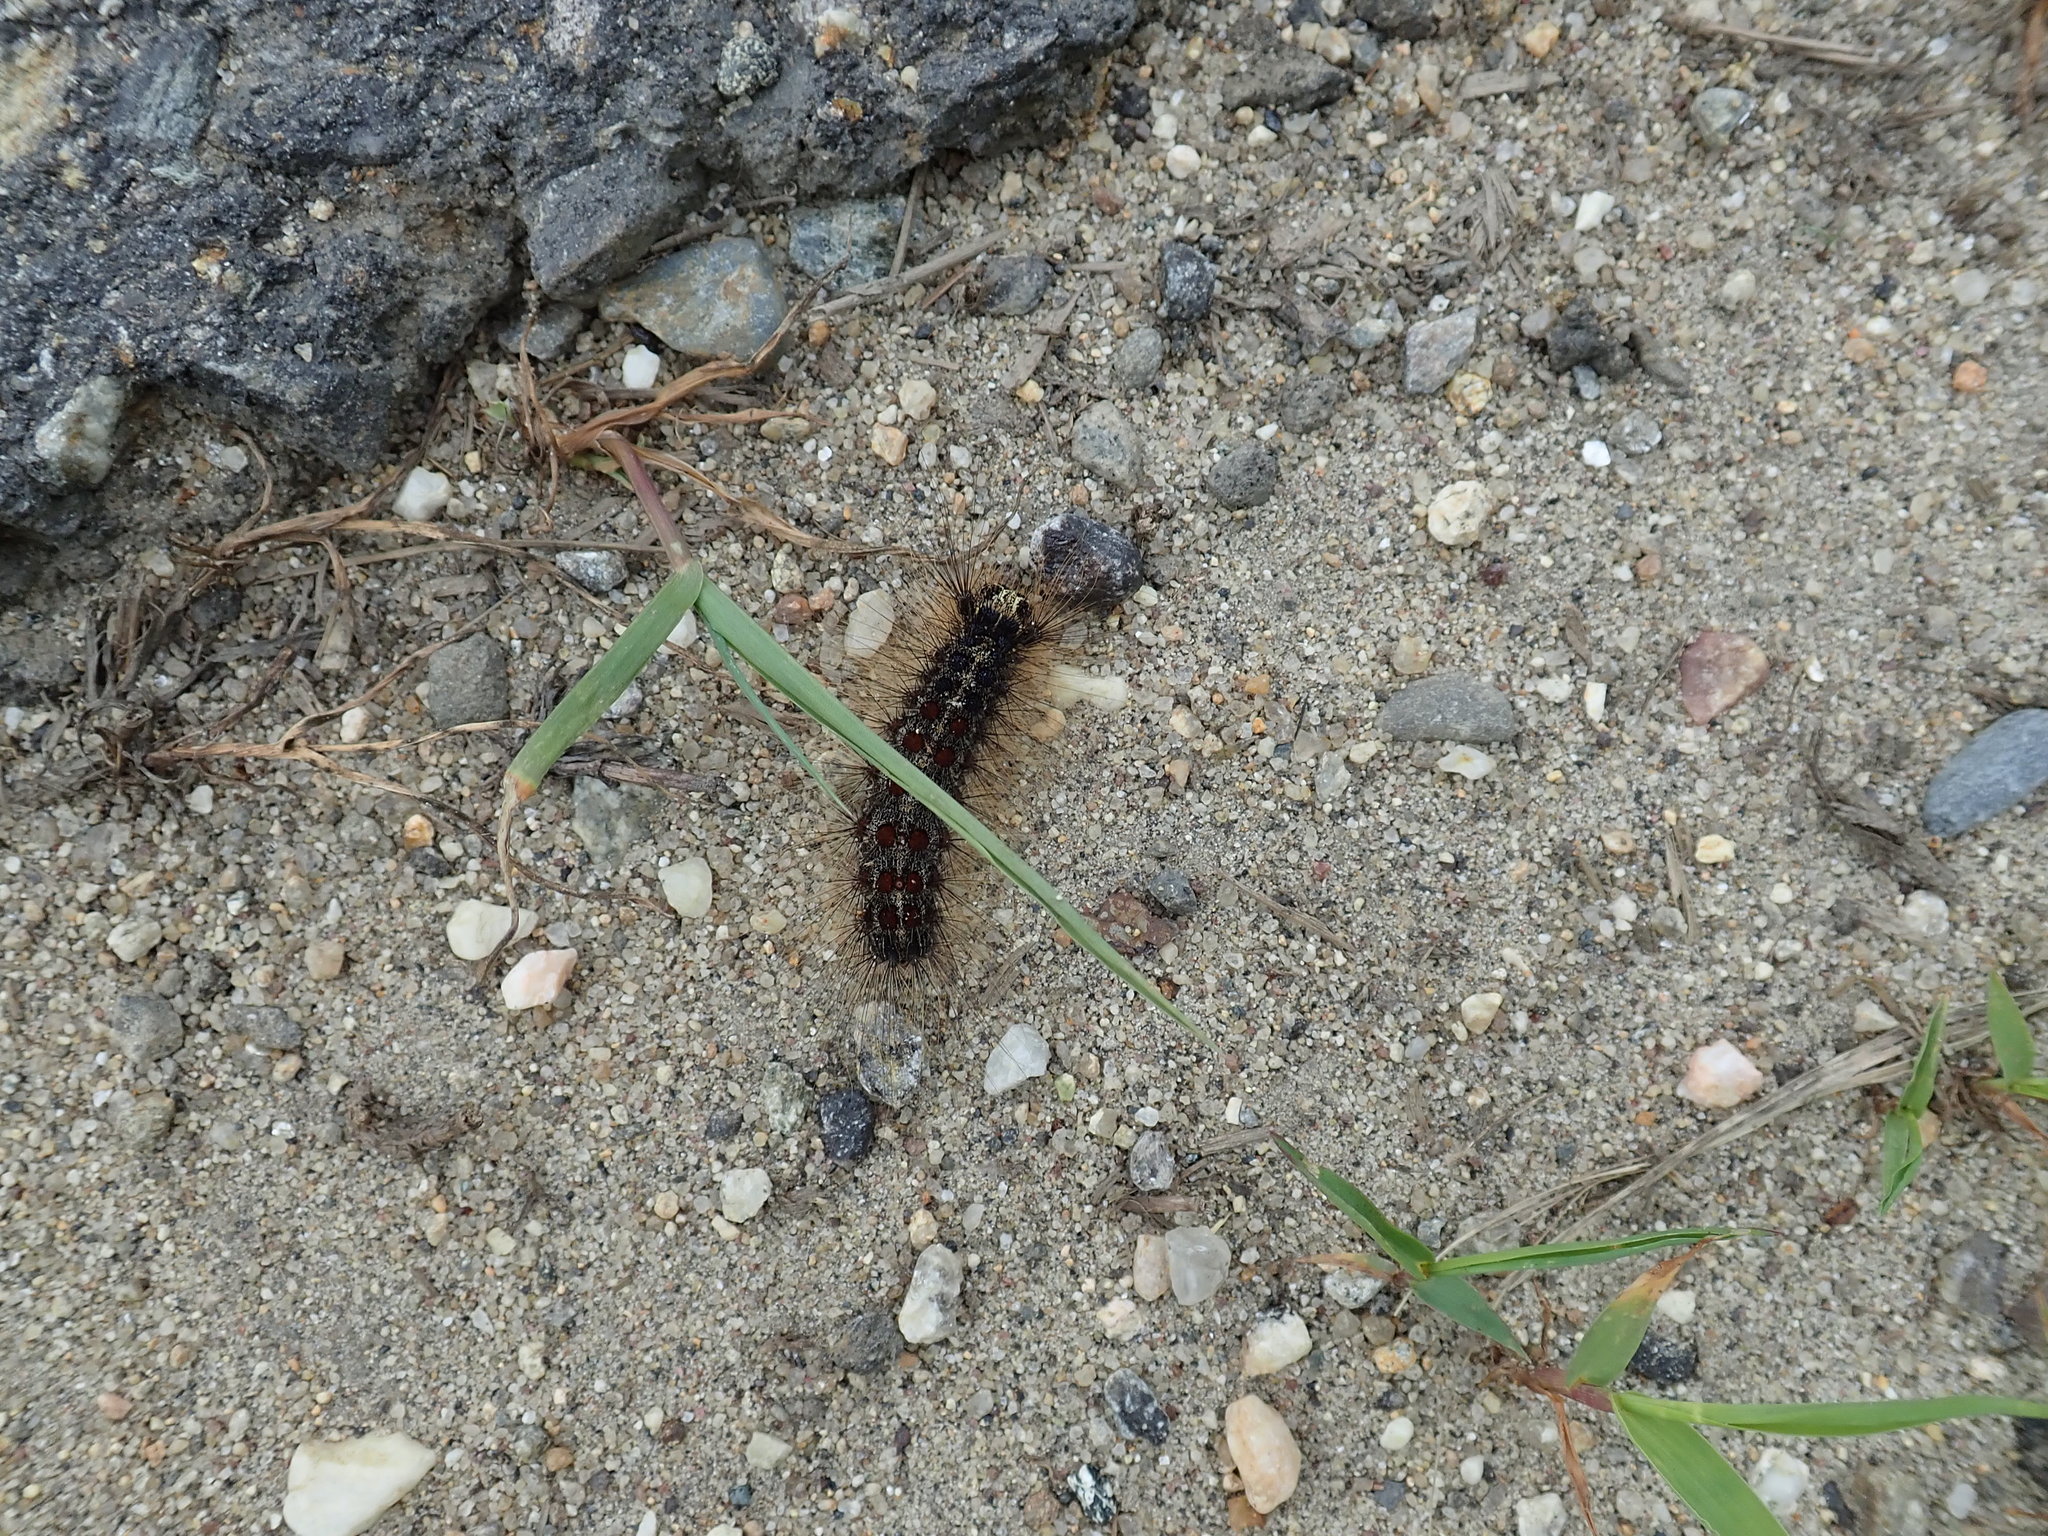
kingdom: Animalia
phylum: Arthropoda
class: Insecta
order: Lepidoptera
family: Erebidae
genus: Lymantria
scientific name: Lymantria dispar
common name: Gypsy moth
